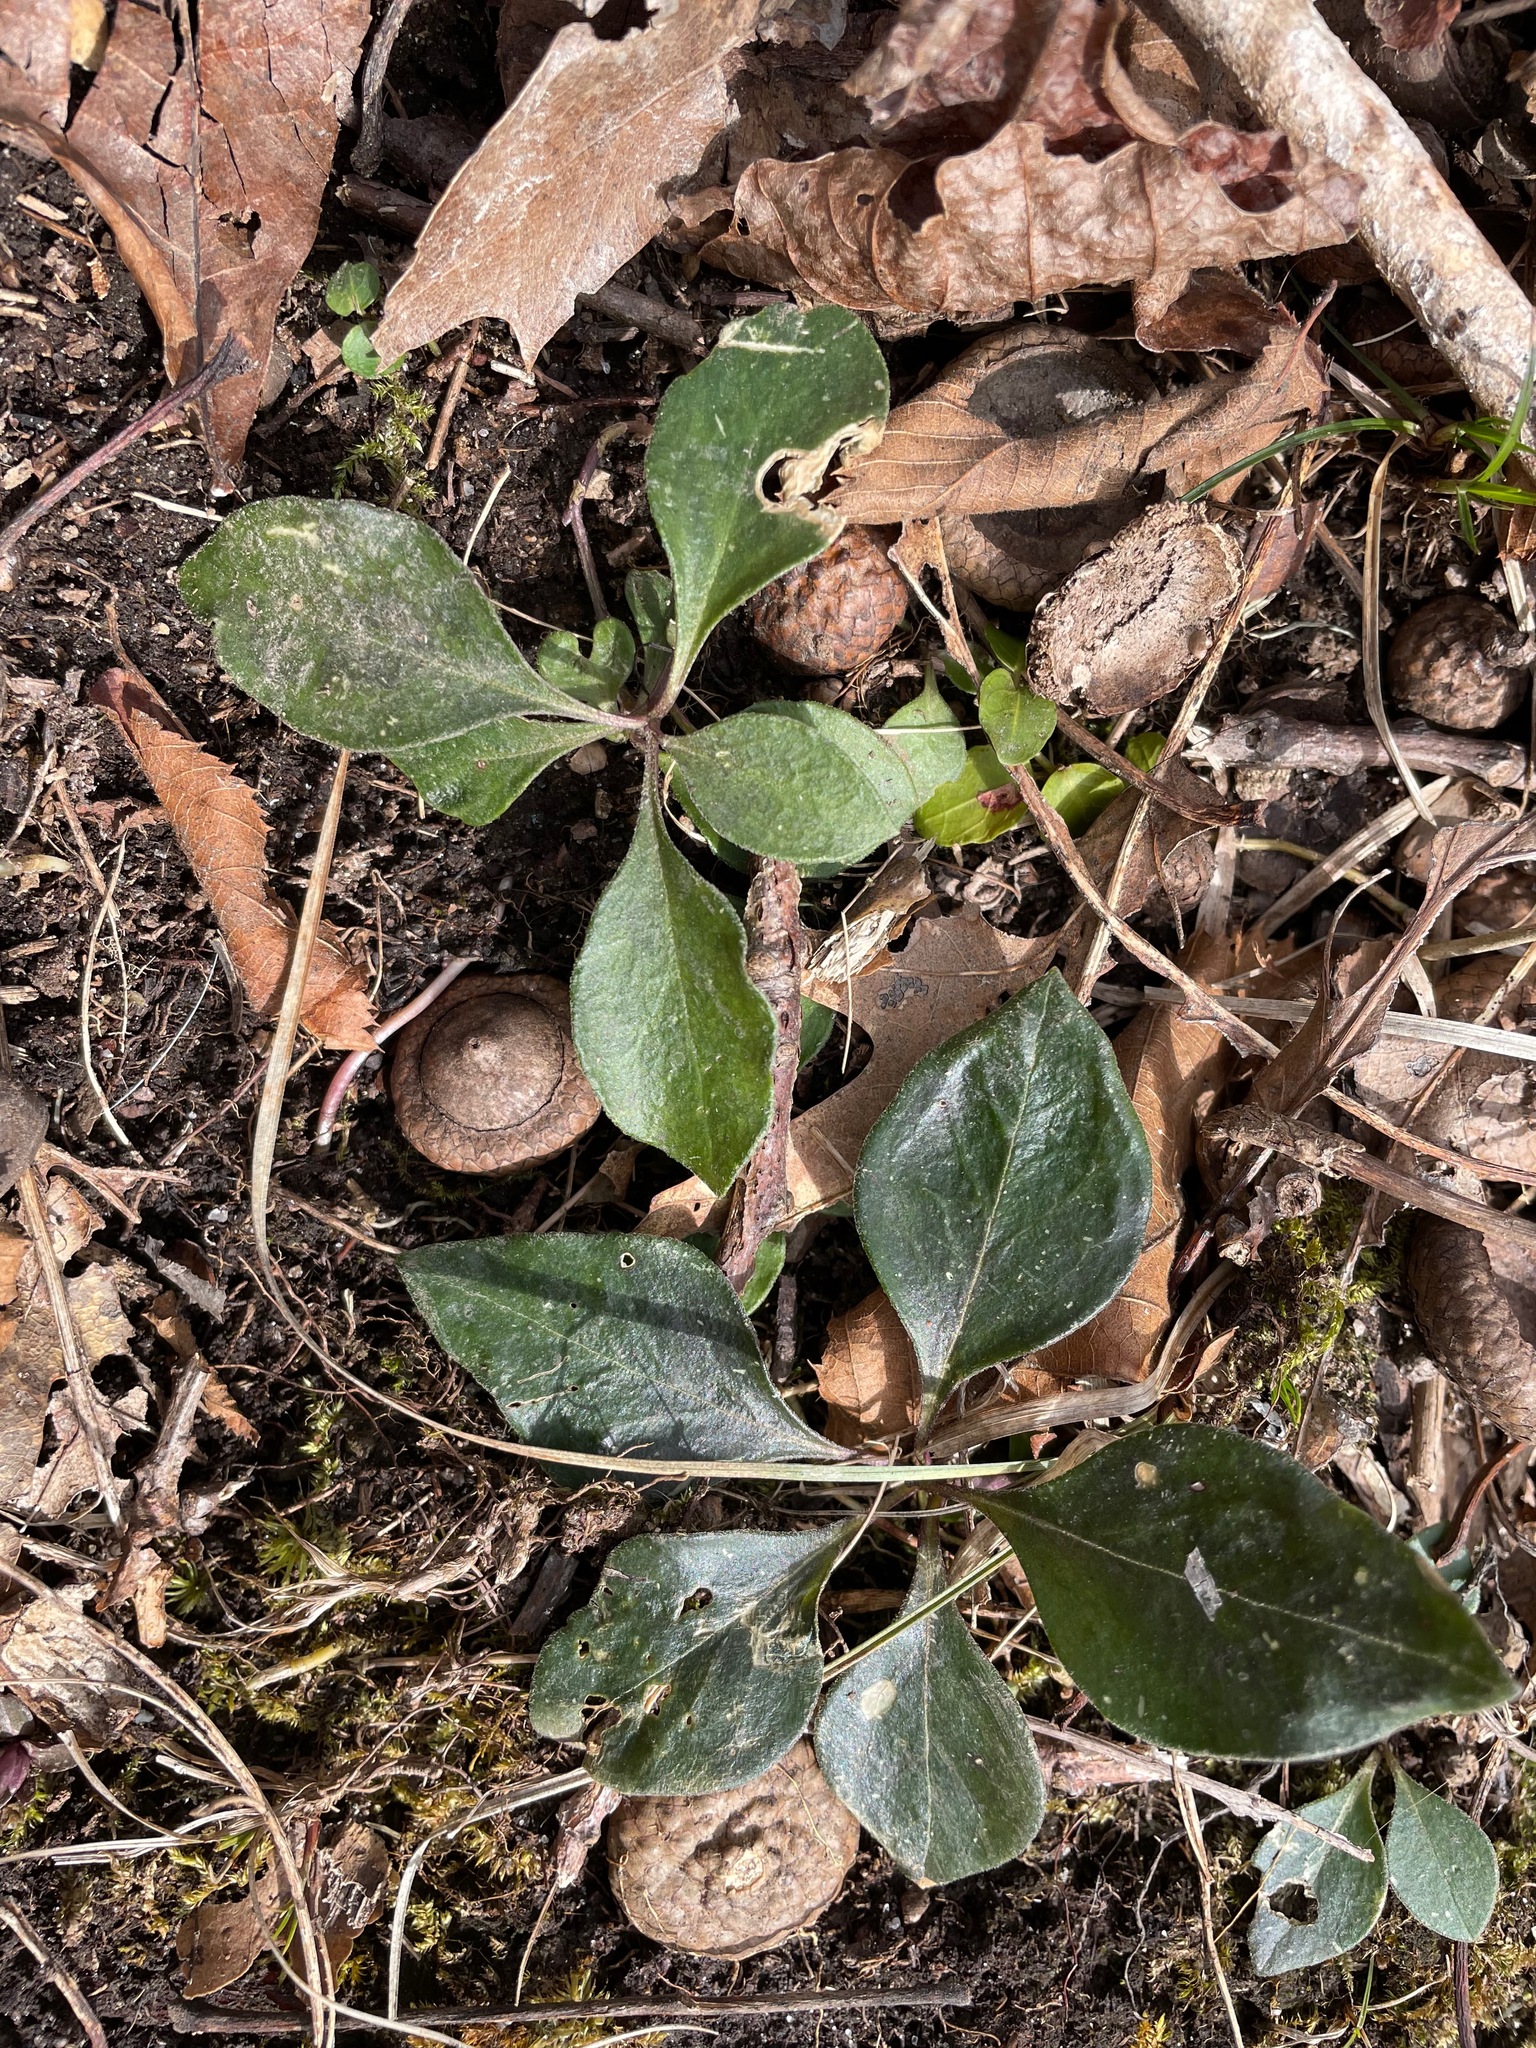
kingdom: Plantae
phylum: Tracheophyta
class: Magnoliopsida
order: Fabales
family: Polygalaceae
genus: Polygaloides
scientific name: Polygaloides paucifolia
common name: Bird-on-the-wing
